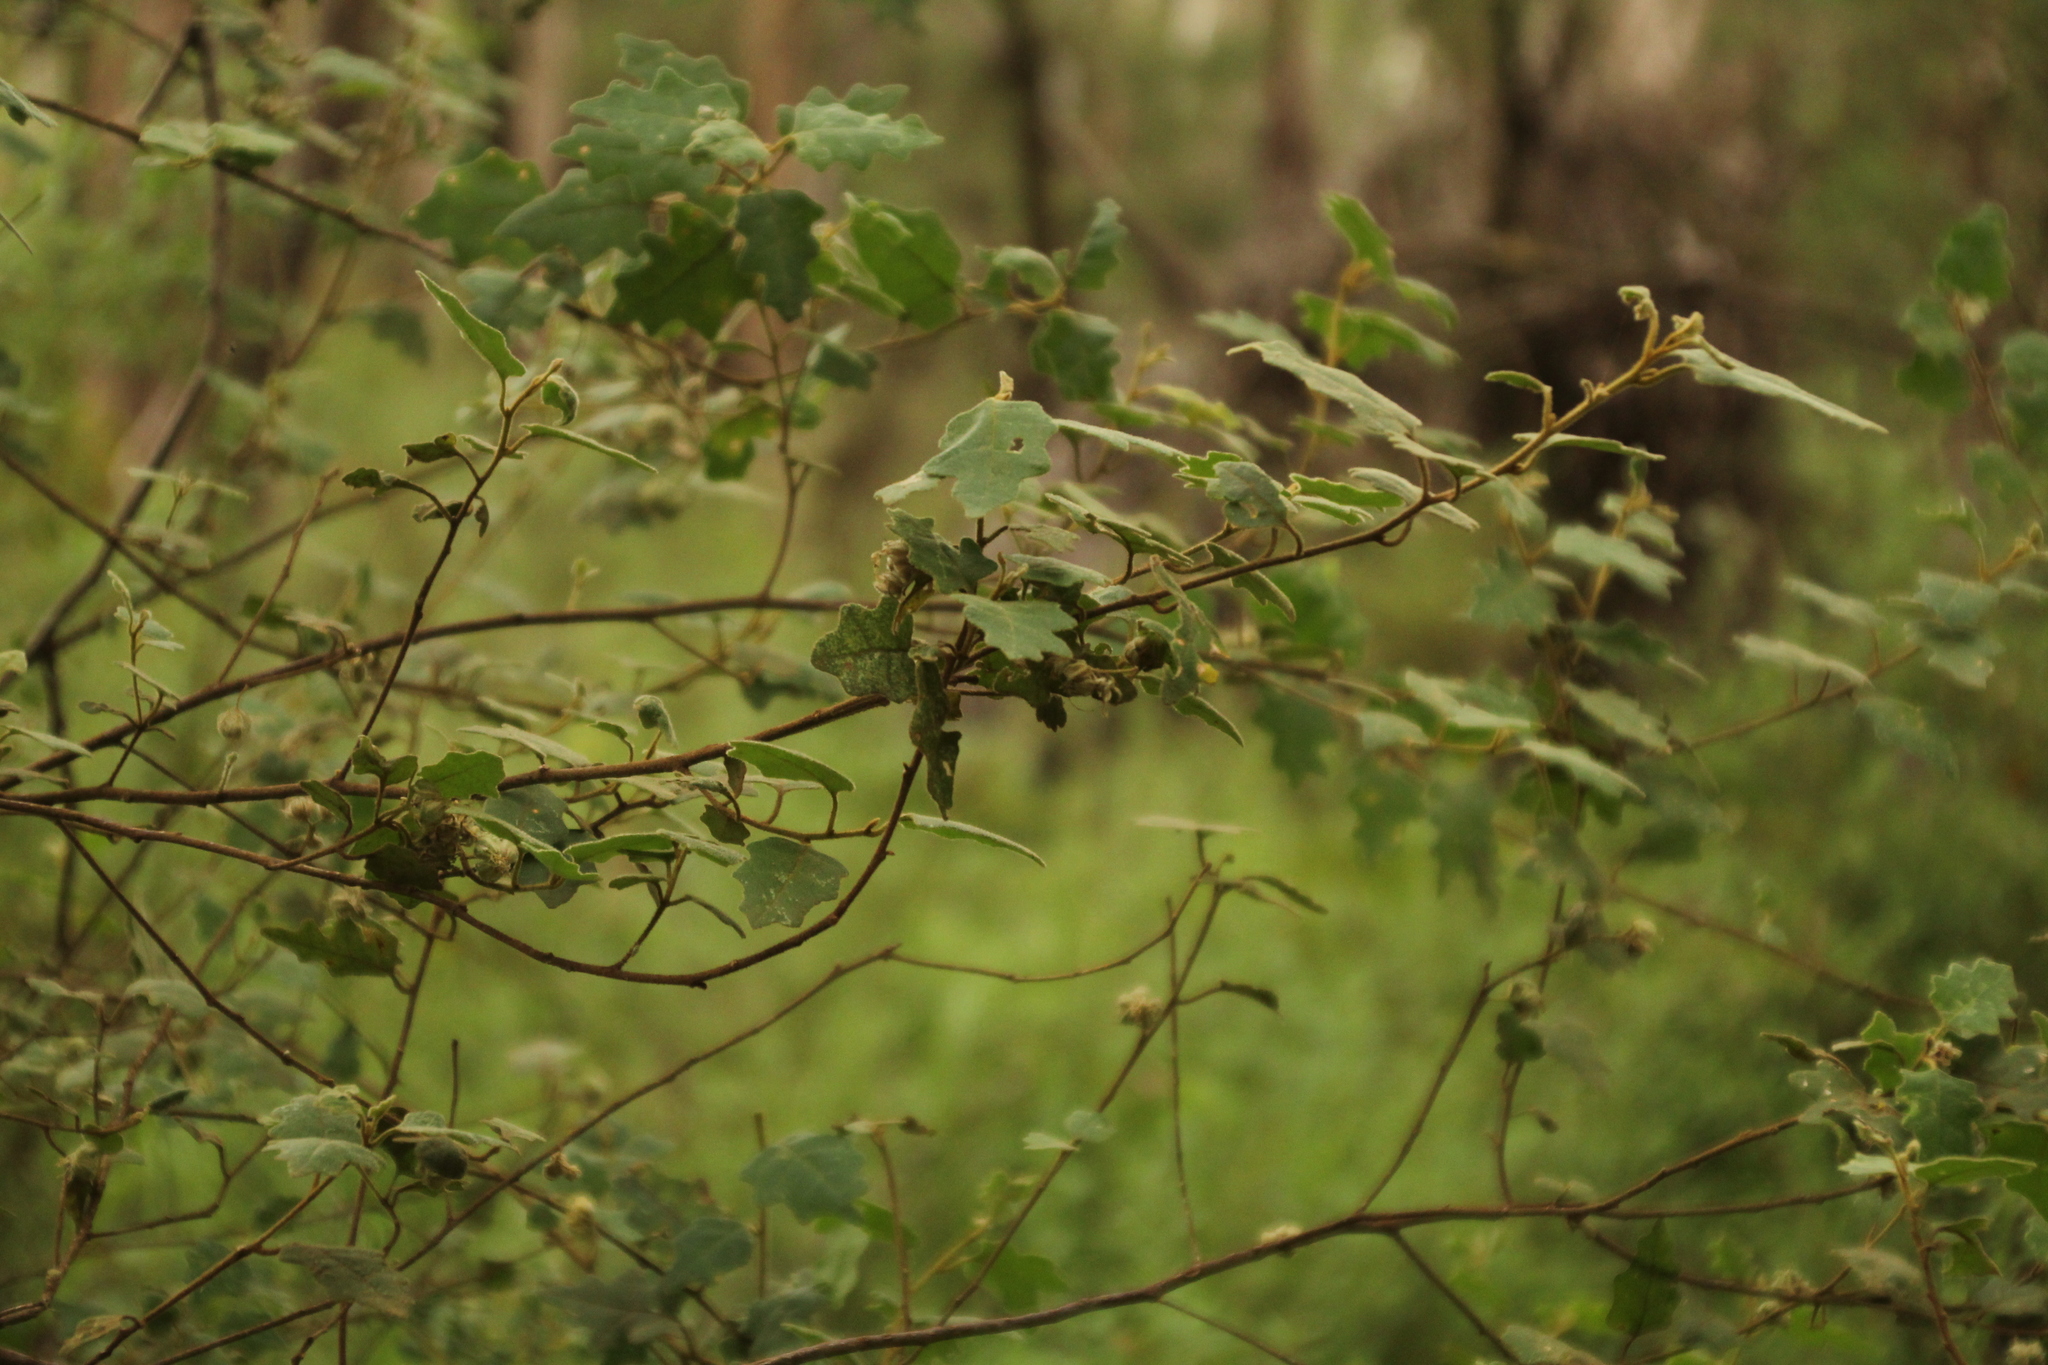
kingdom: Plantae
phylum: Tracheophyta
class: Magnoliopsida
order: Sapindales
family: Rutaceae
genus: Chorilaena
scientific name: Chorilaena quercifolia
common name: Wild hop
